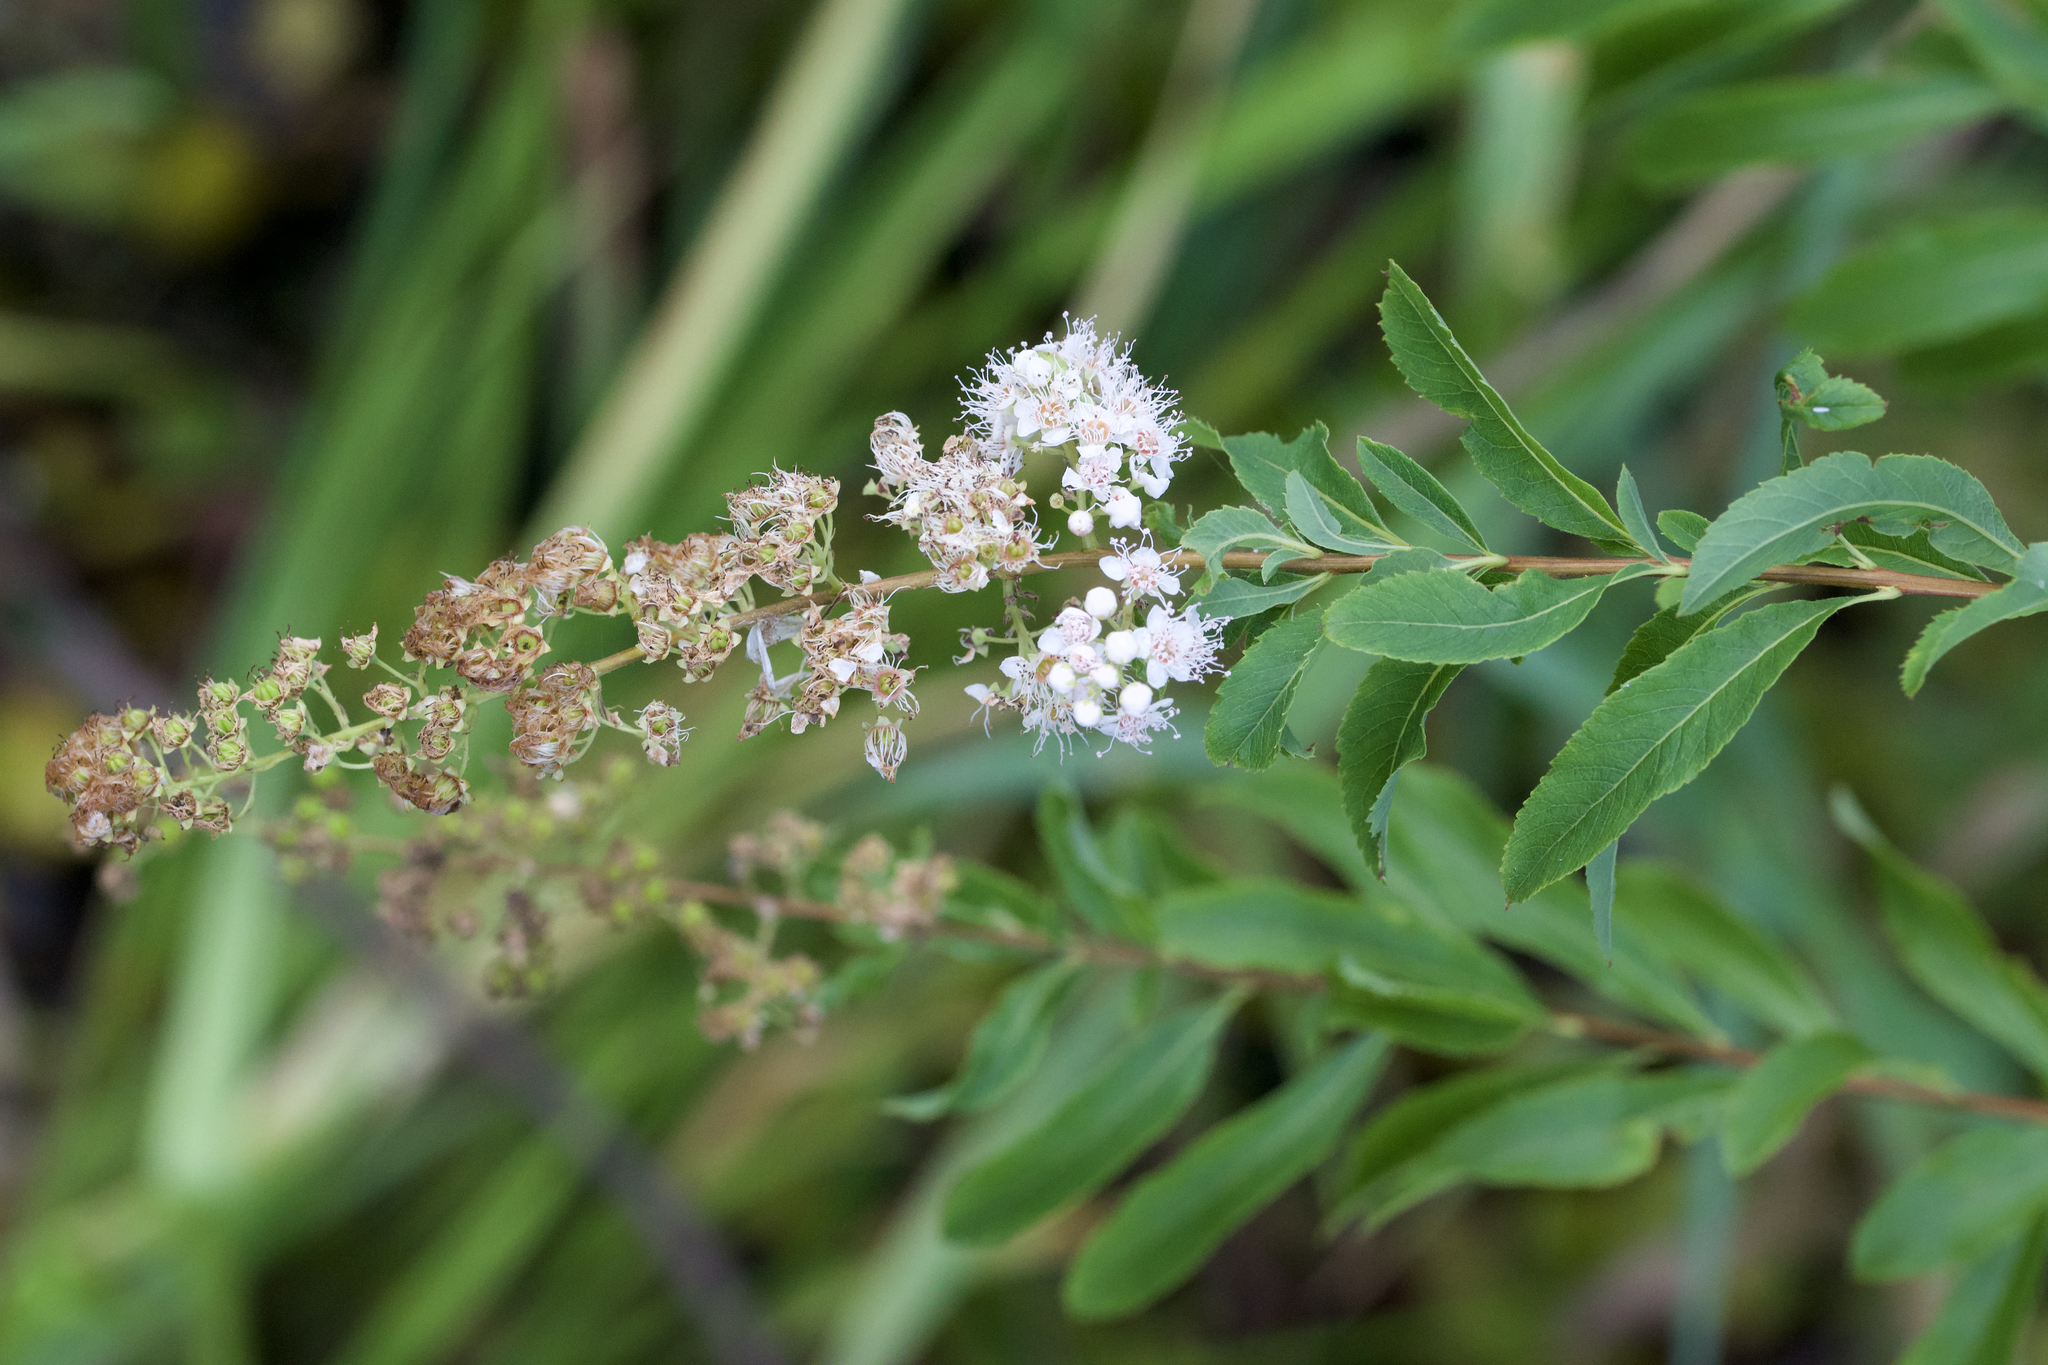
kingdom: Plantae
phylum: Tracheophyta
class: Magnoliopsida
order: Rosales
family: Rosaceae
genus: Spiraea
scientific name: Spiraea alba
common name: Pale bridewort
